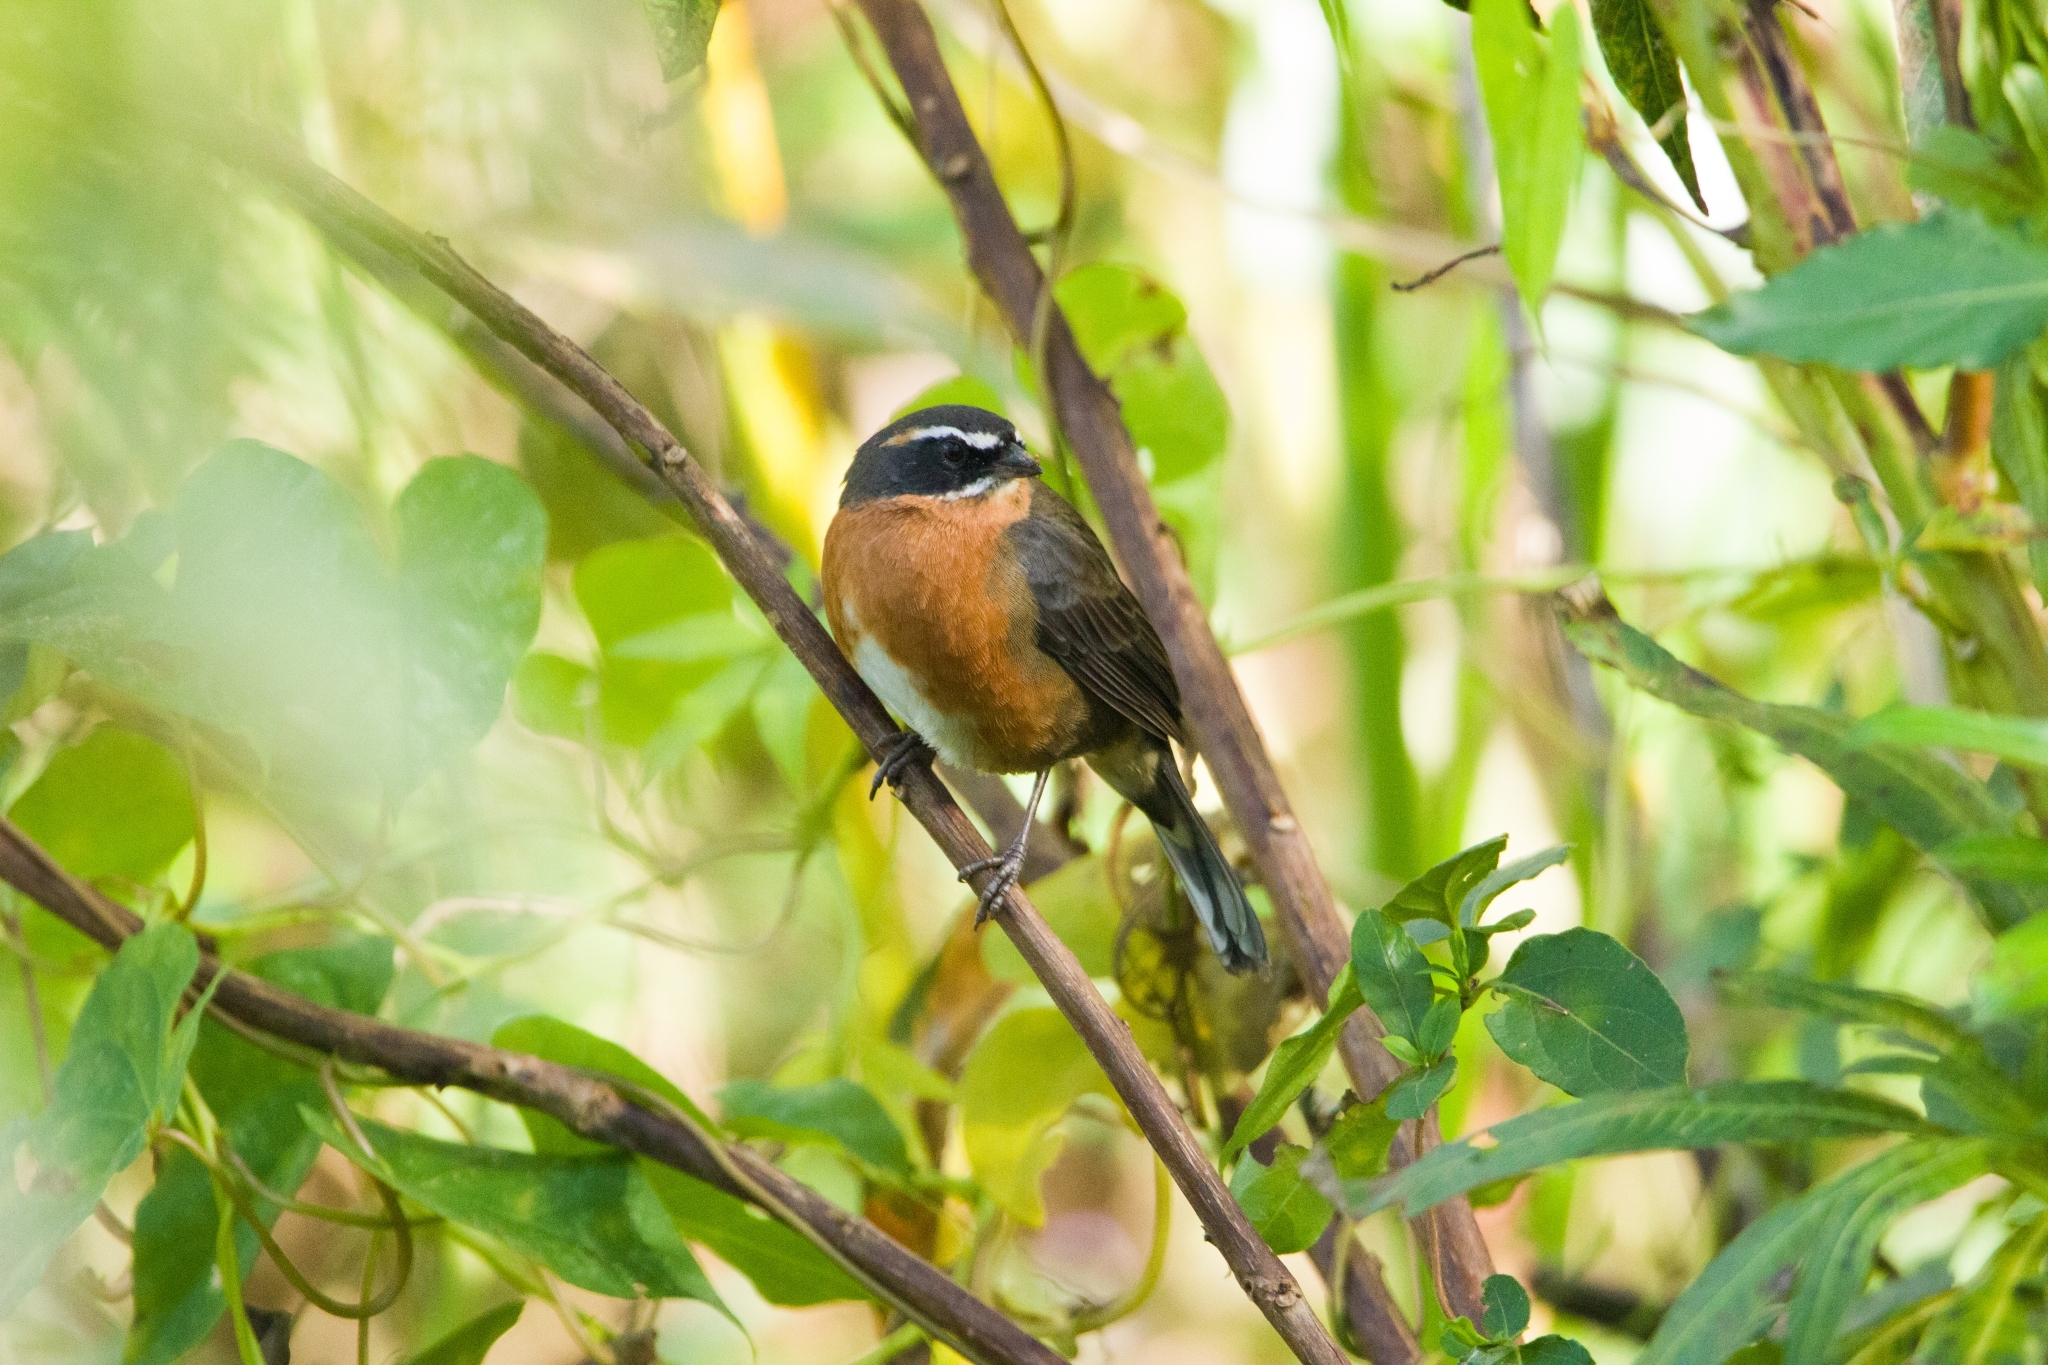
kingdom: Animalia
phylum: Chordata
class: Aves
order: Passeriformes
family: Thraupidae
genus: Poospiza
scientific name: Poospiza nigrorufa
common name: Black-and-rufous warbling finch
